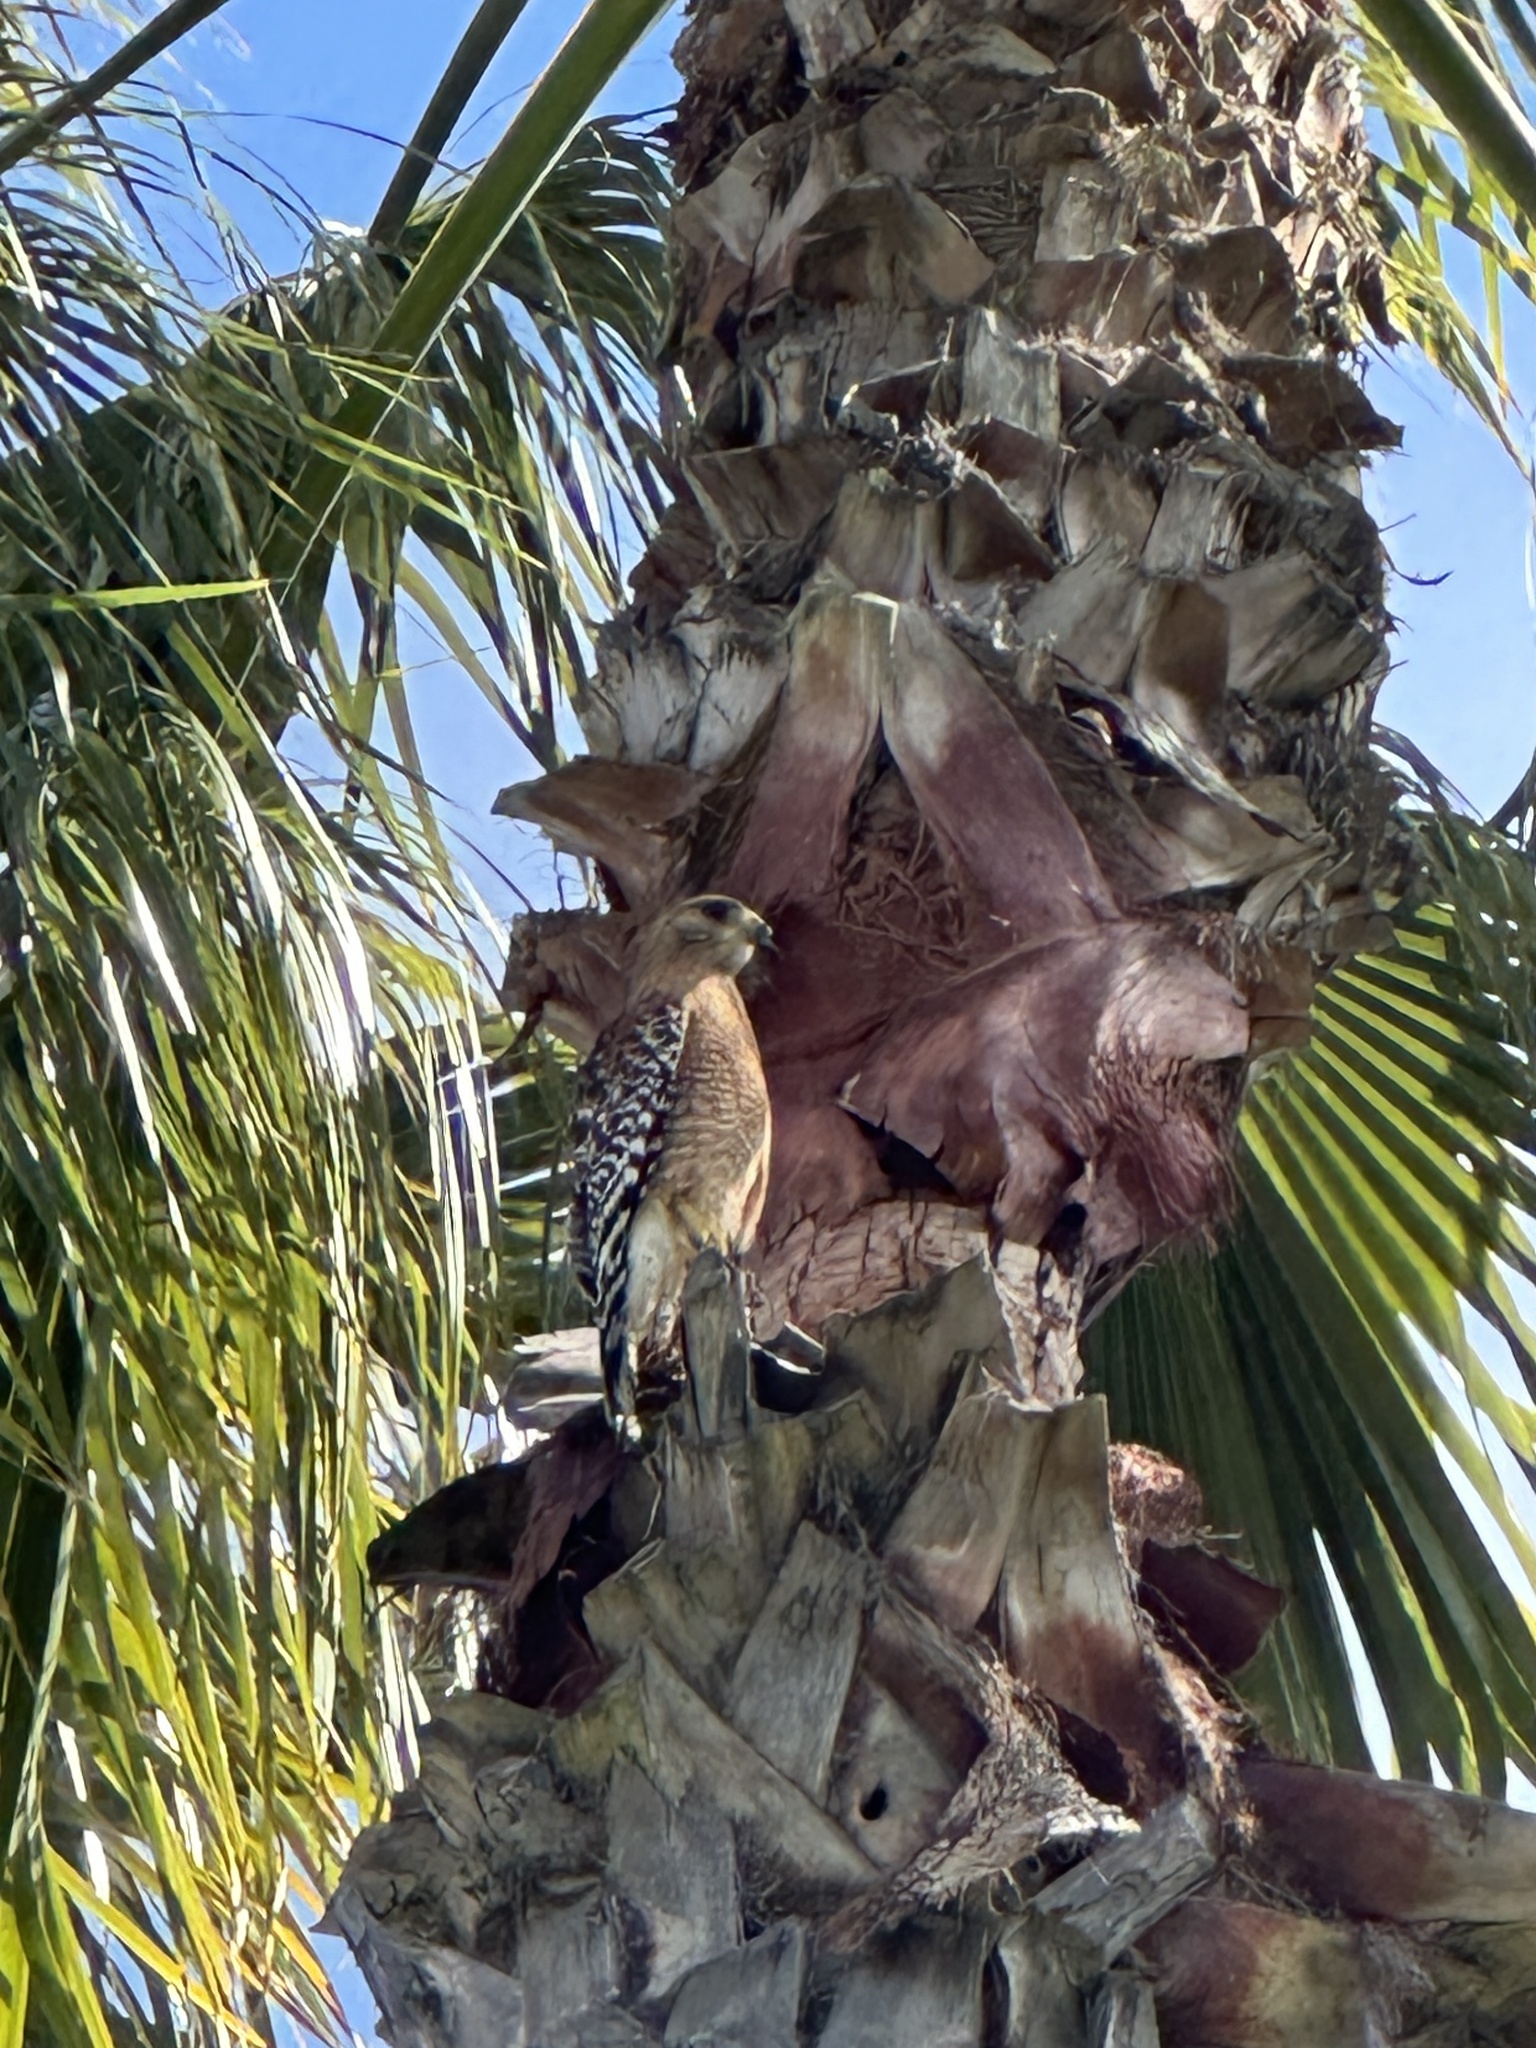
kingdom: Animalia
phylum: Chordata
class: Aves
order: Accipitriformes
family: Accipitridae
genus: Buteo
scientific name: Buteo lineatus
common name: Red-shouldered hawk
